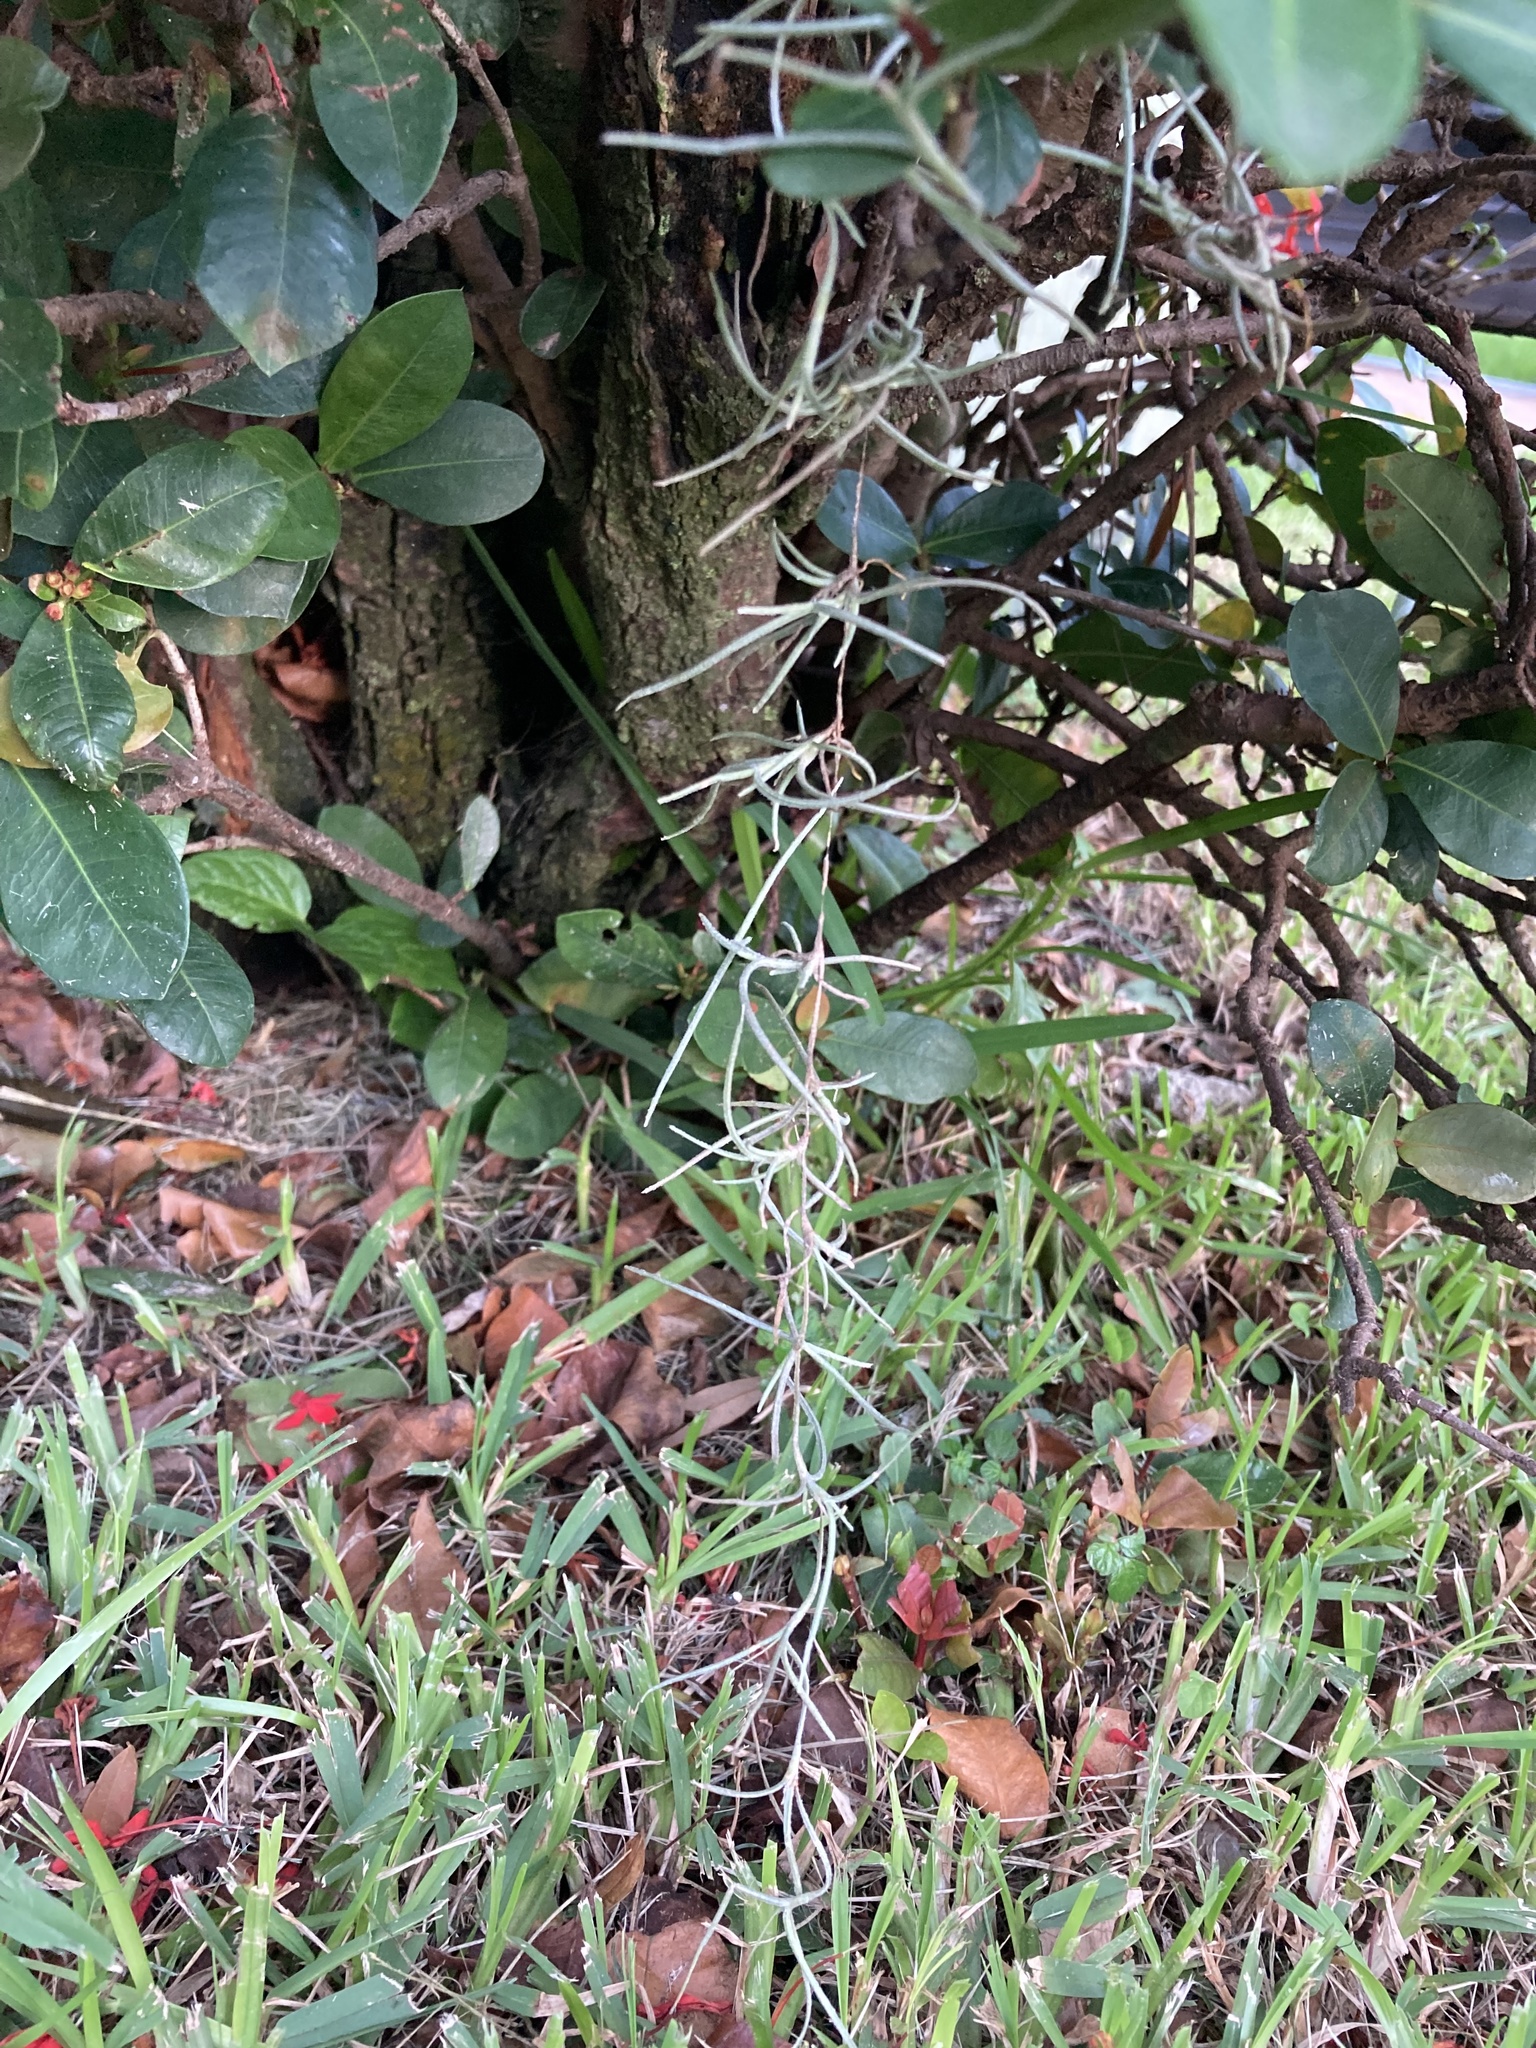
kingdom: Plantae
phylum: Tracheophyta
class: Liliopsida
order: Poales
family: Bromeliaceae
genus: Tillandsia
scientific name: Tillandsia usneoides
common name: Spanish moss
